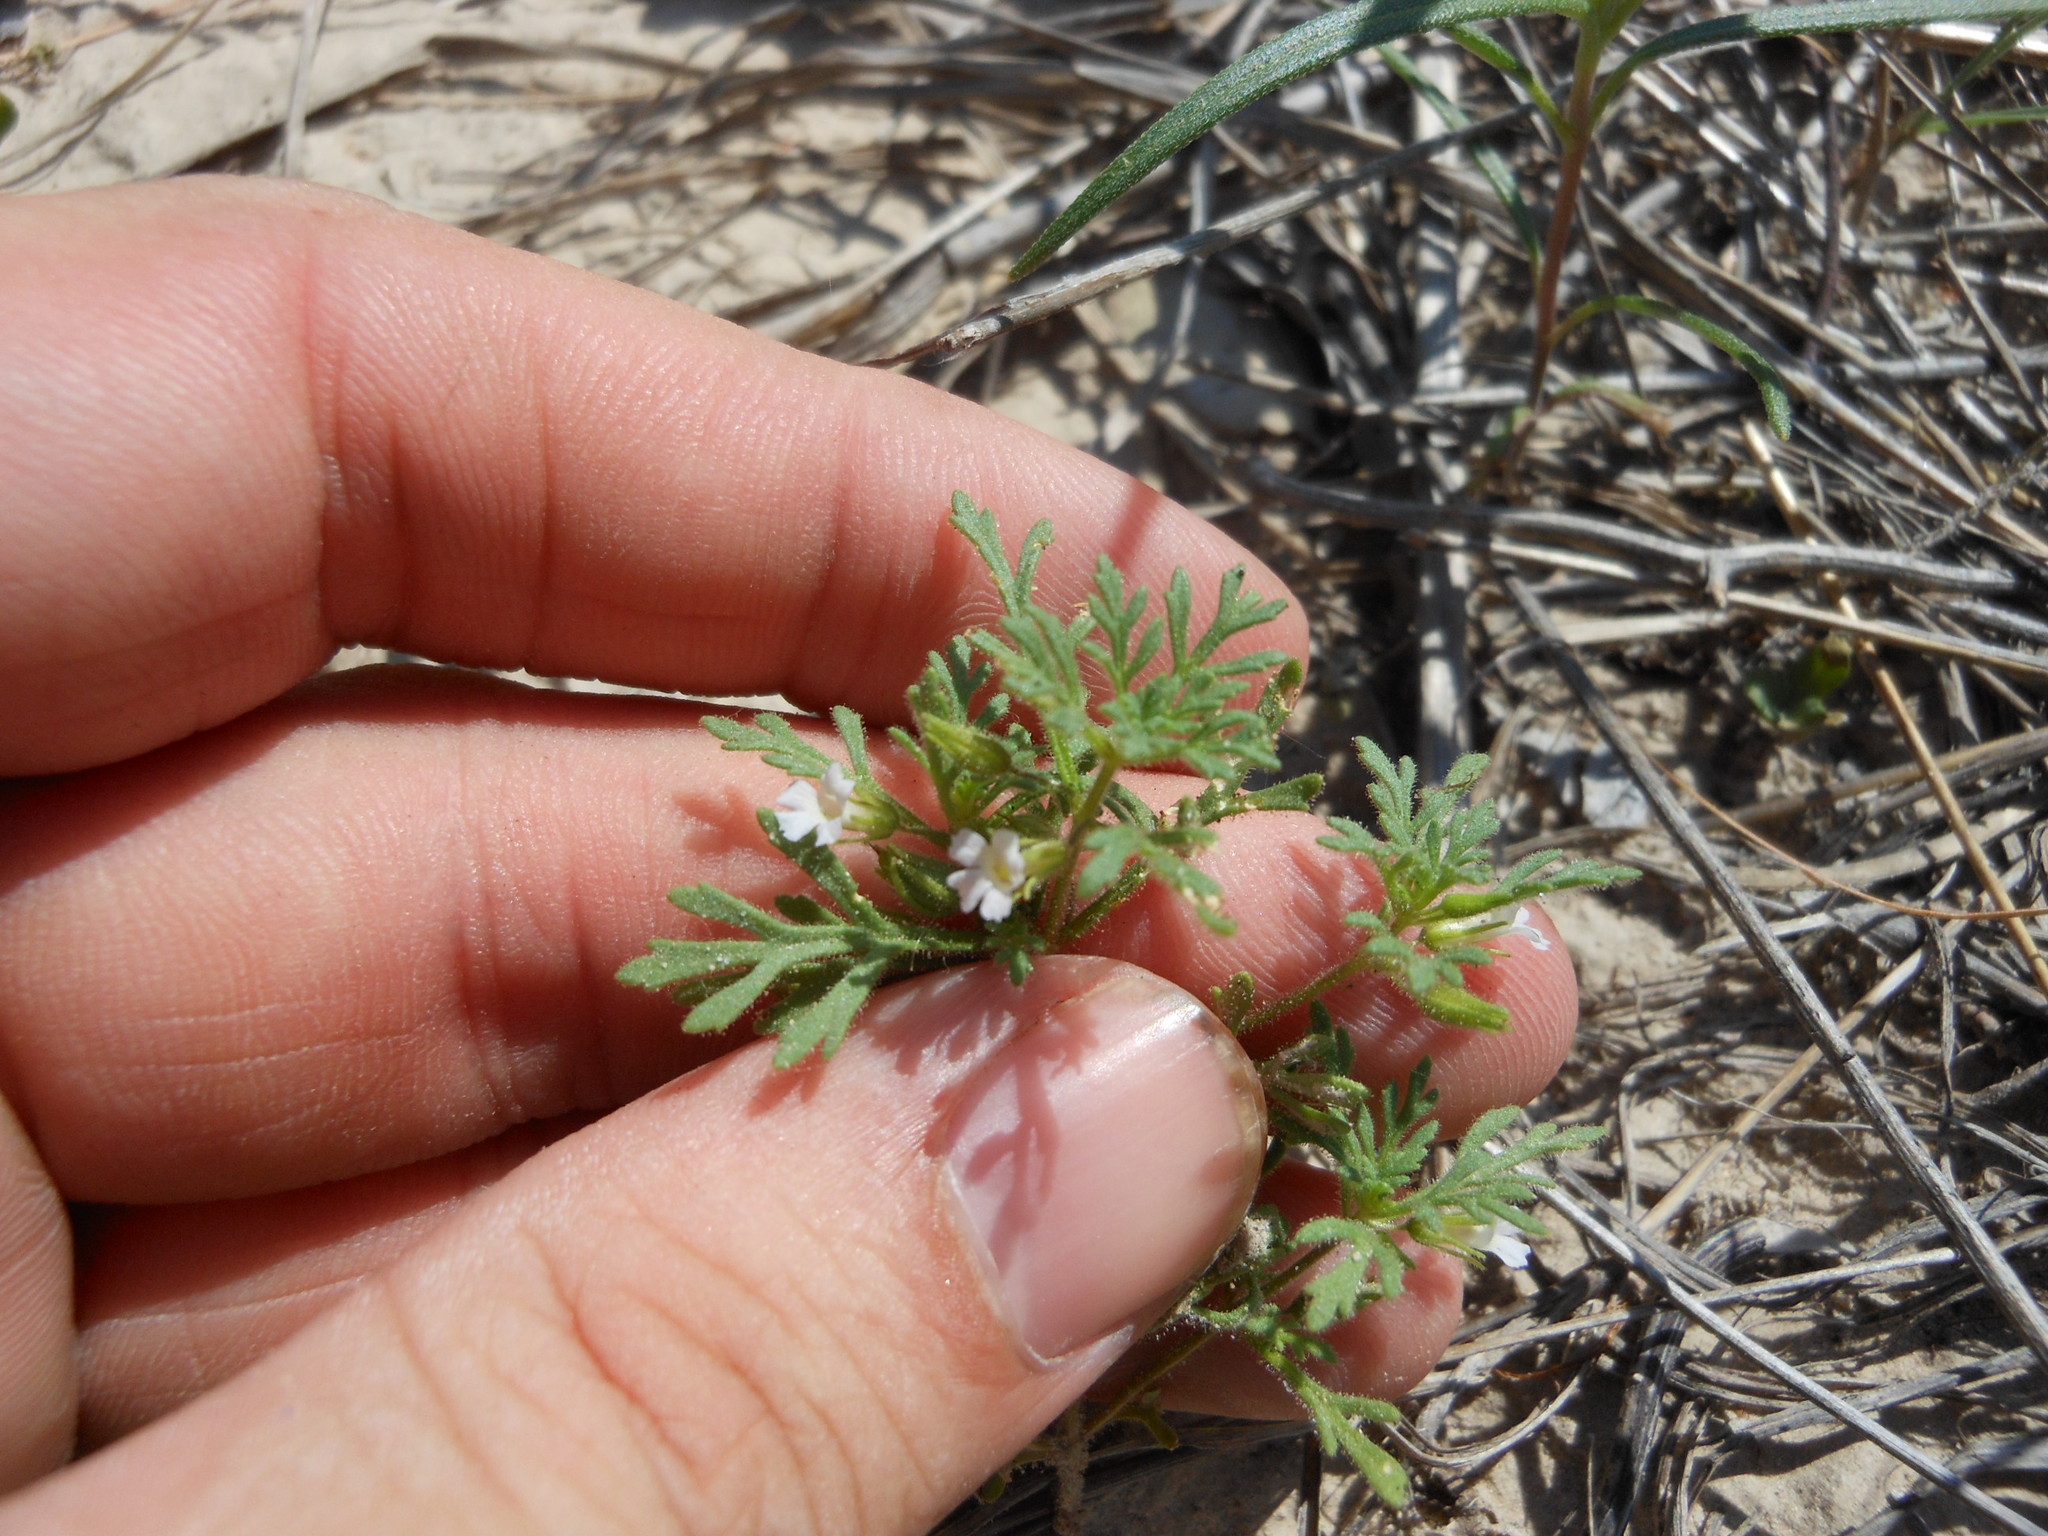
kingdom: Plantae
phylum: Tracheophyta
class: Magnoliopsida
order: Lamiales
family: Plantaginaceae
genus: Leucospora
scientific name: Leucospora multifida
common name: Narrow-leaf paleseed
